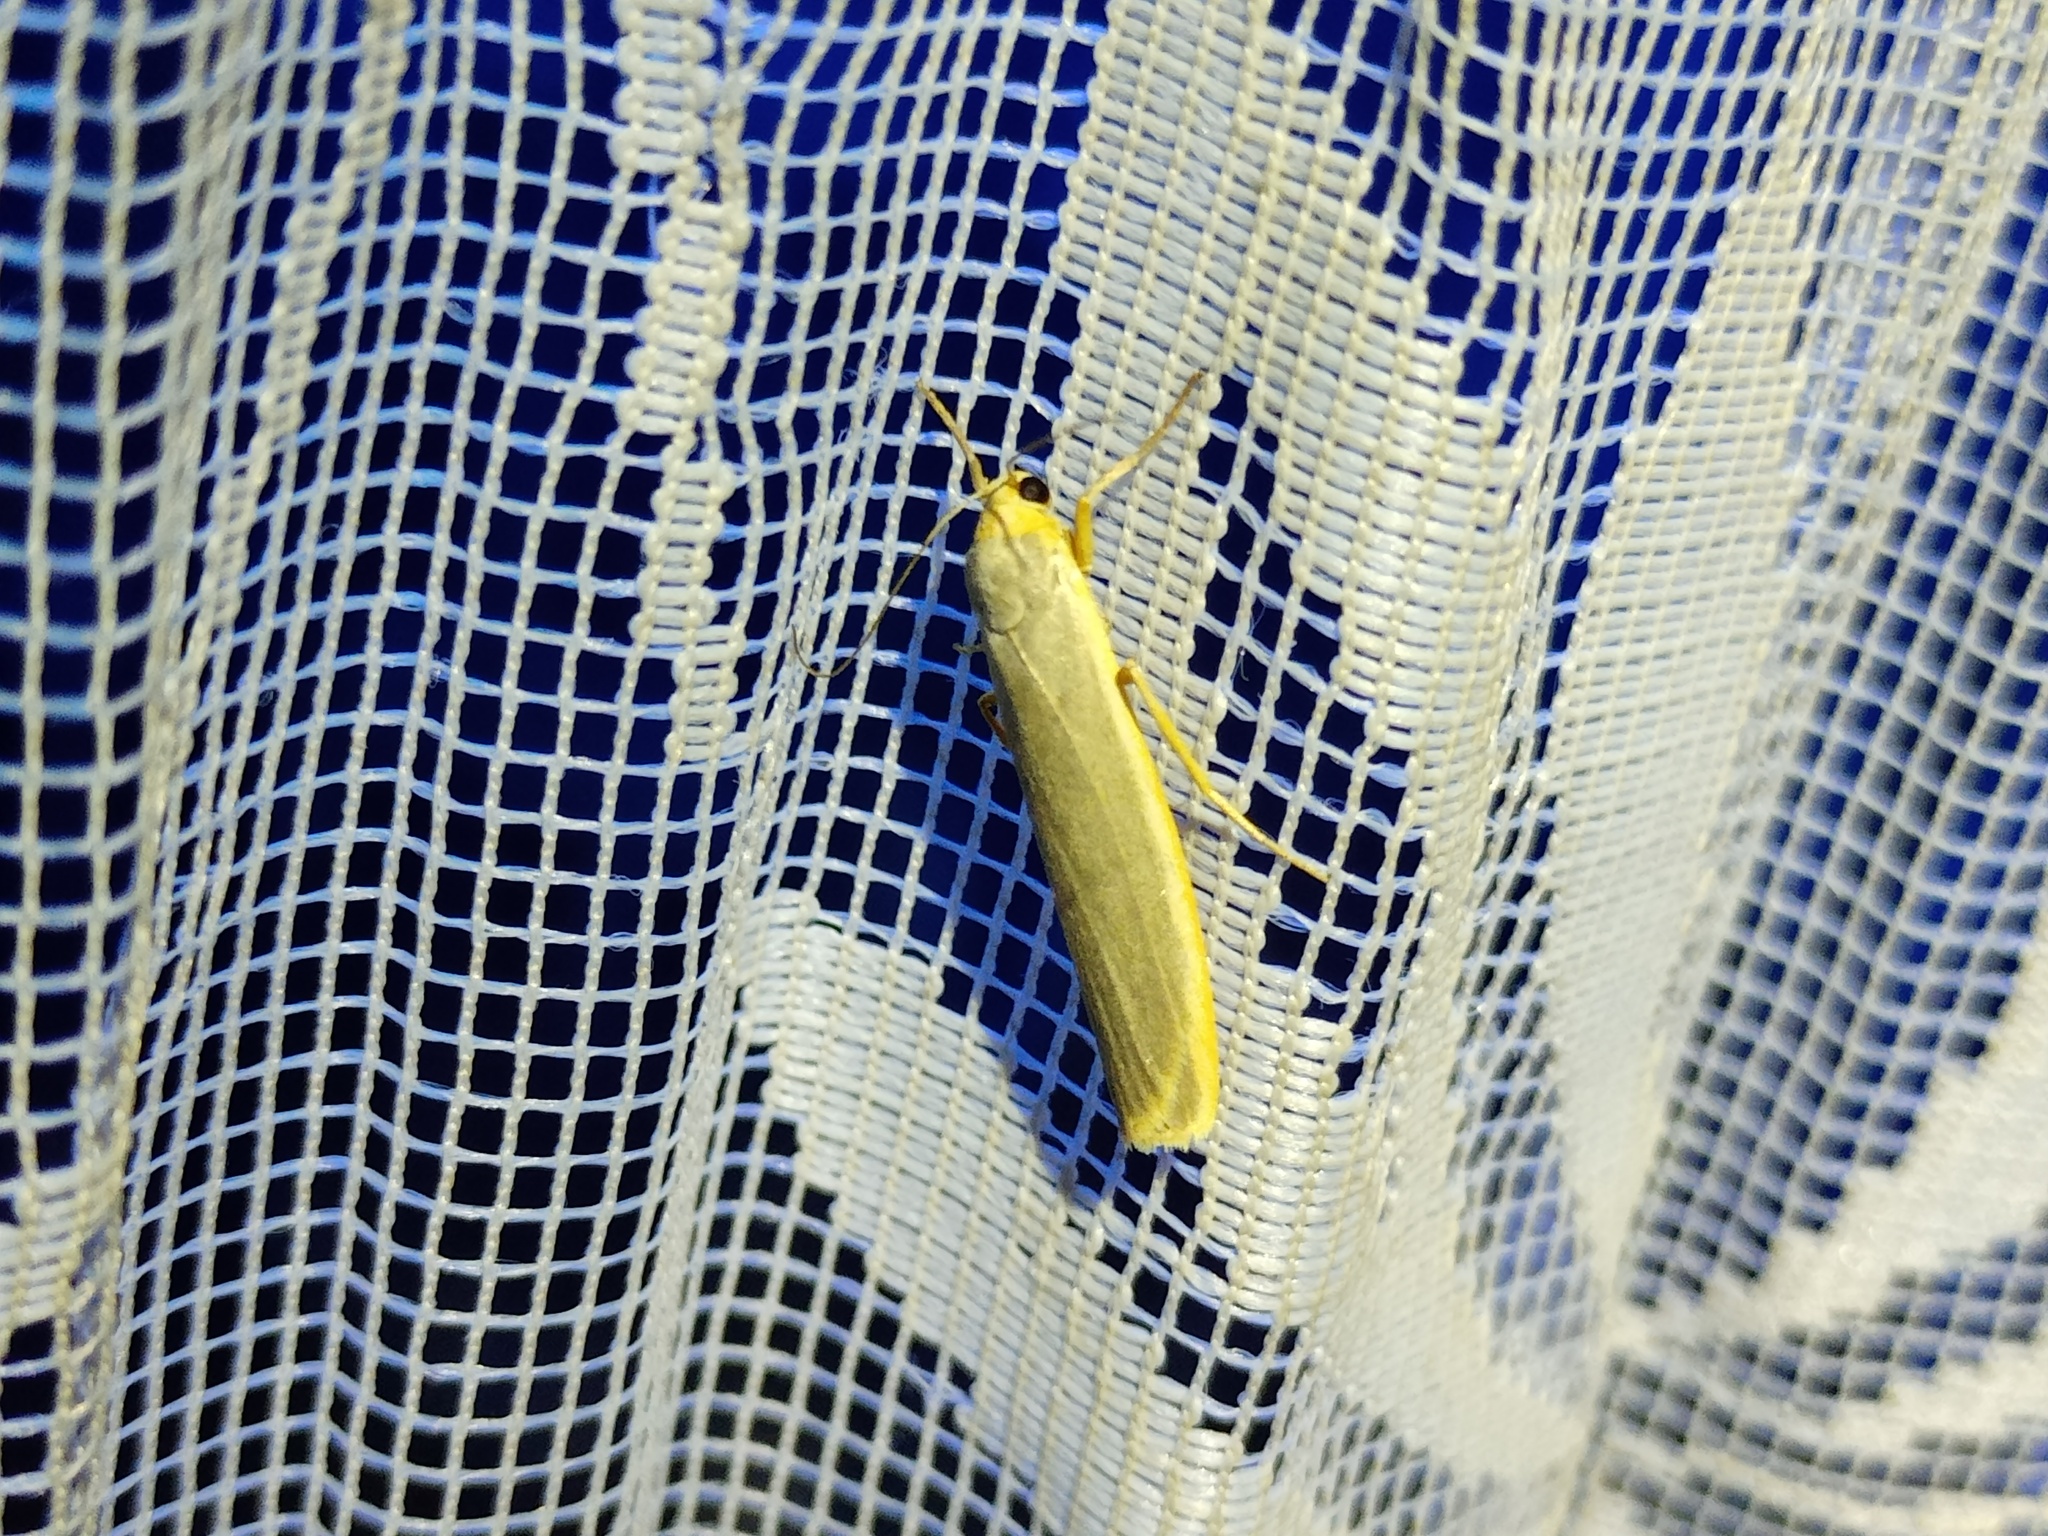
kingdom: Animalia
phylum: Arthropoda
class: Insecta
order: Lepidoptera
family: Erebidae
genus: Manulea
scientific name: Manulea complana
